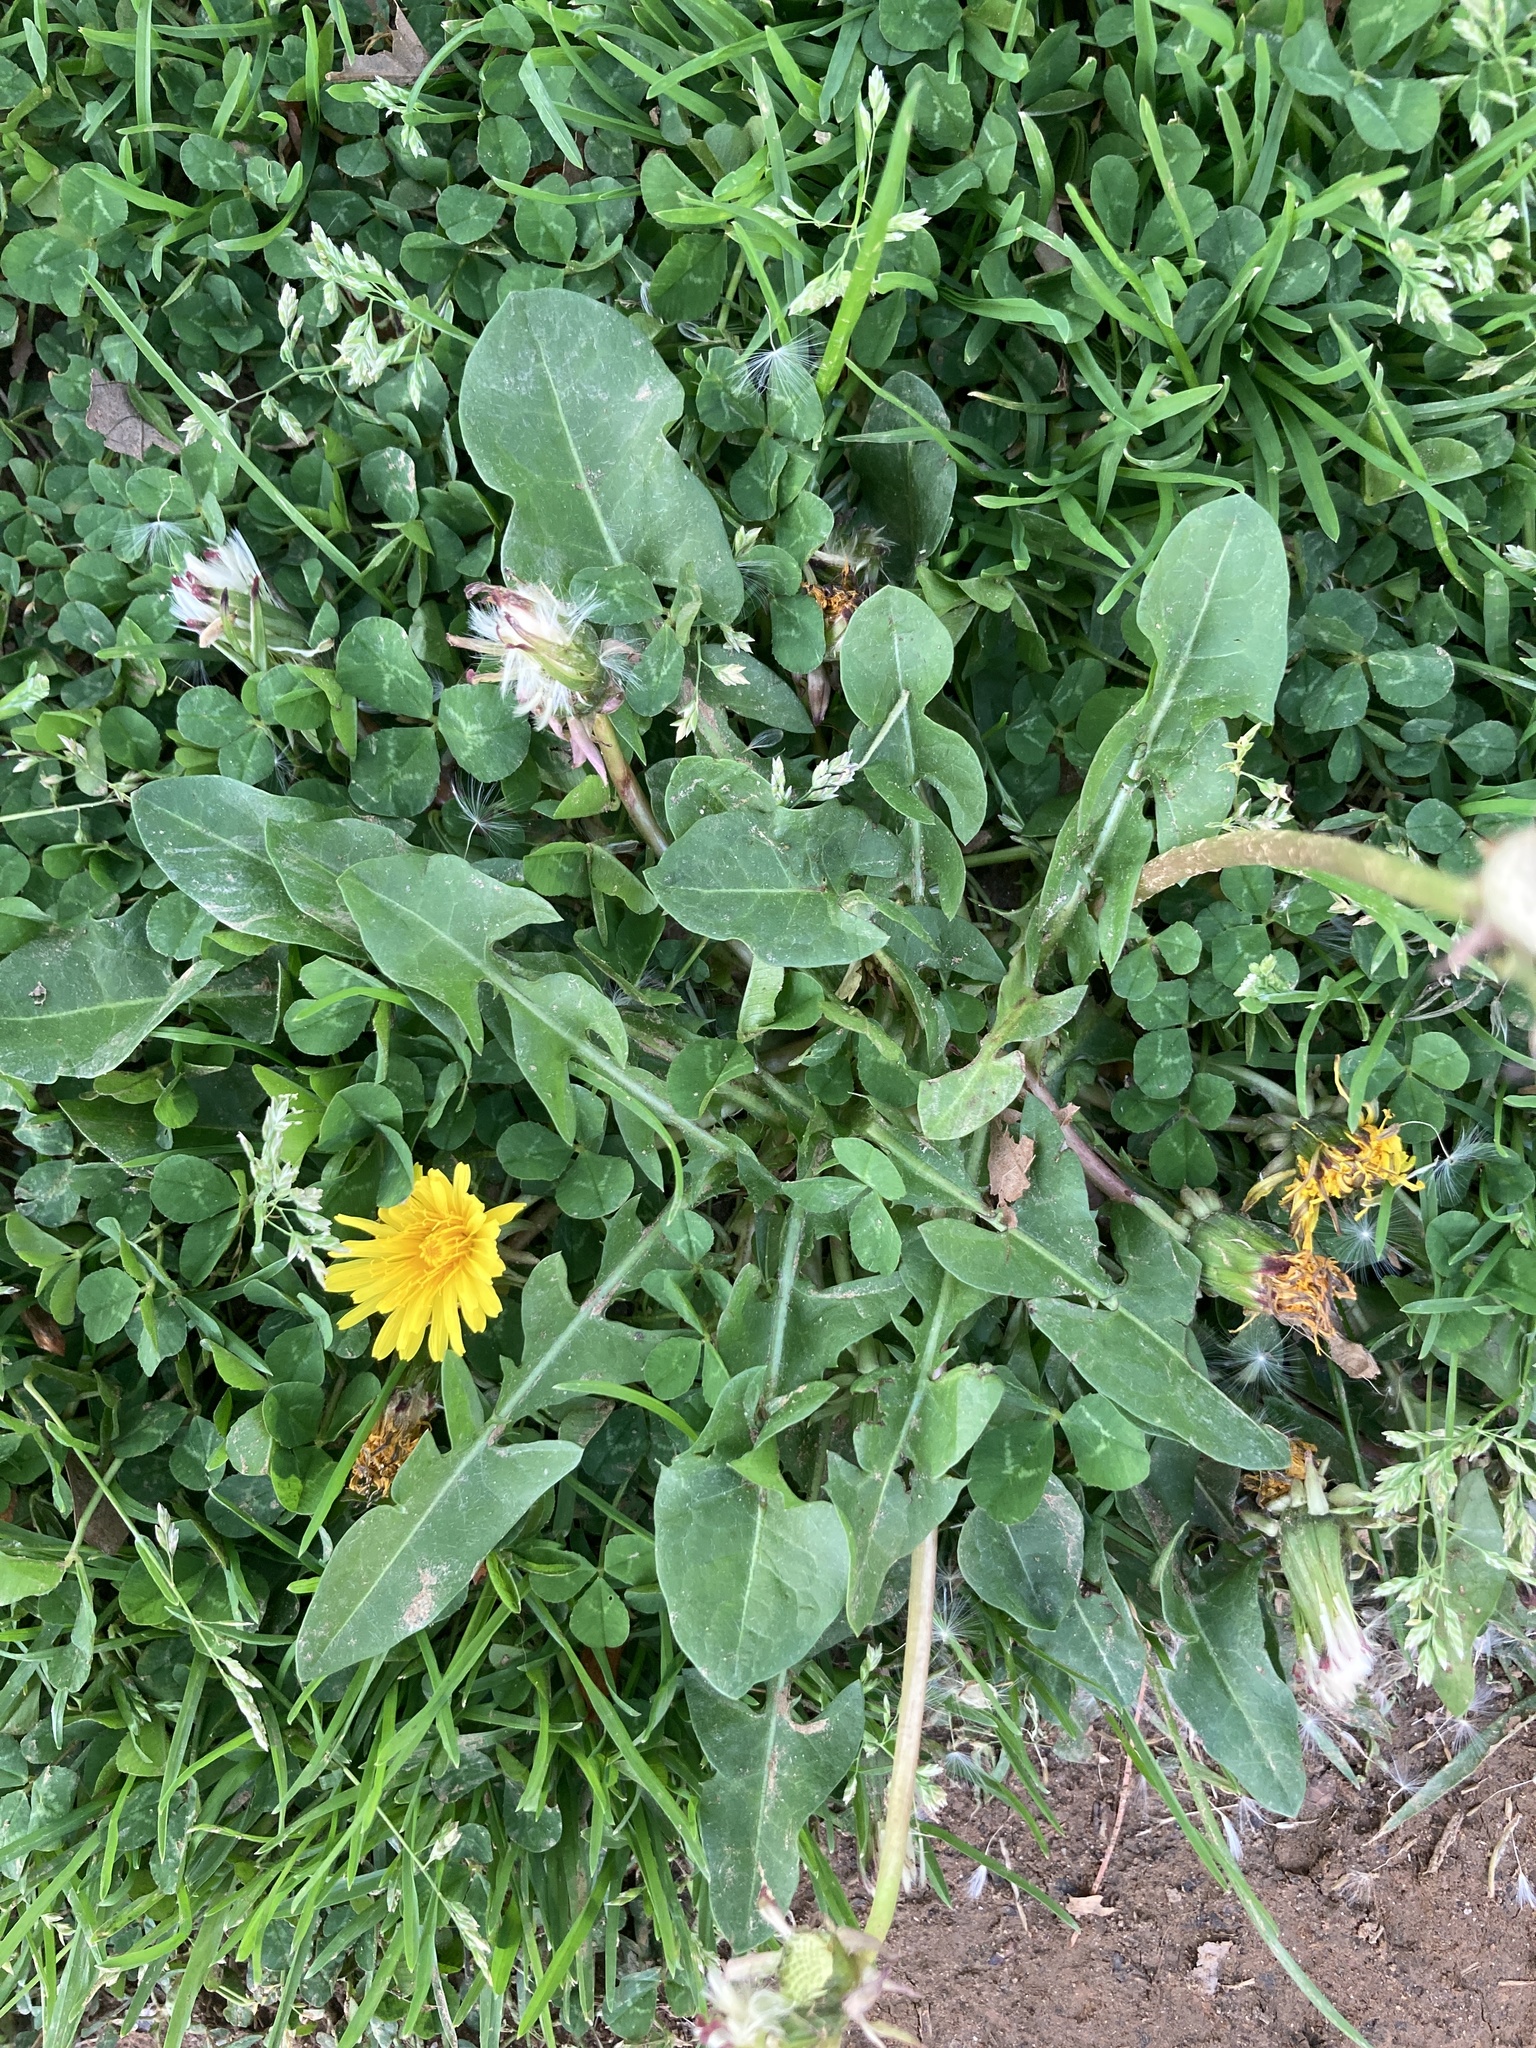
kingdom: Plantae
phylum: Tracheophyta
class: Magnoliopsida
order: Asterales
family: Asteraceae
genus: Taraxacum
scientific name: Taraxacum officinale
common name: Common dandelion
